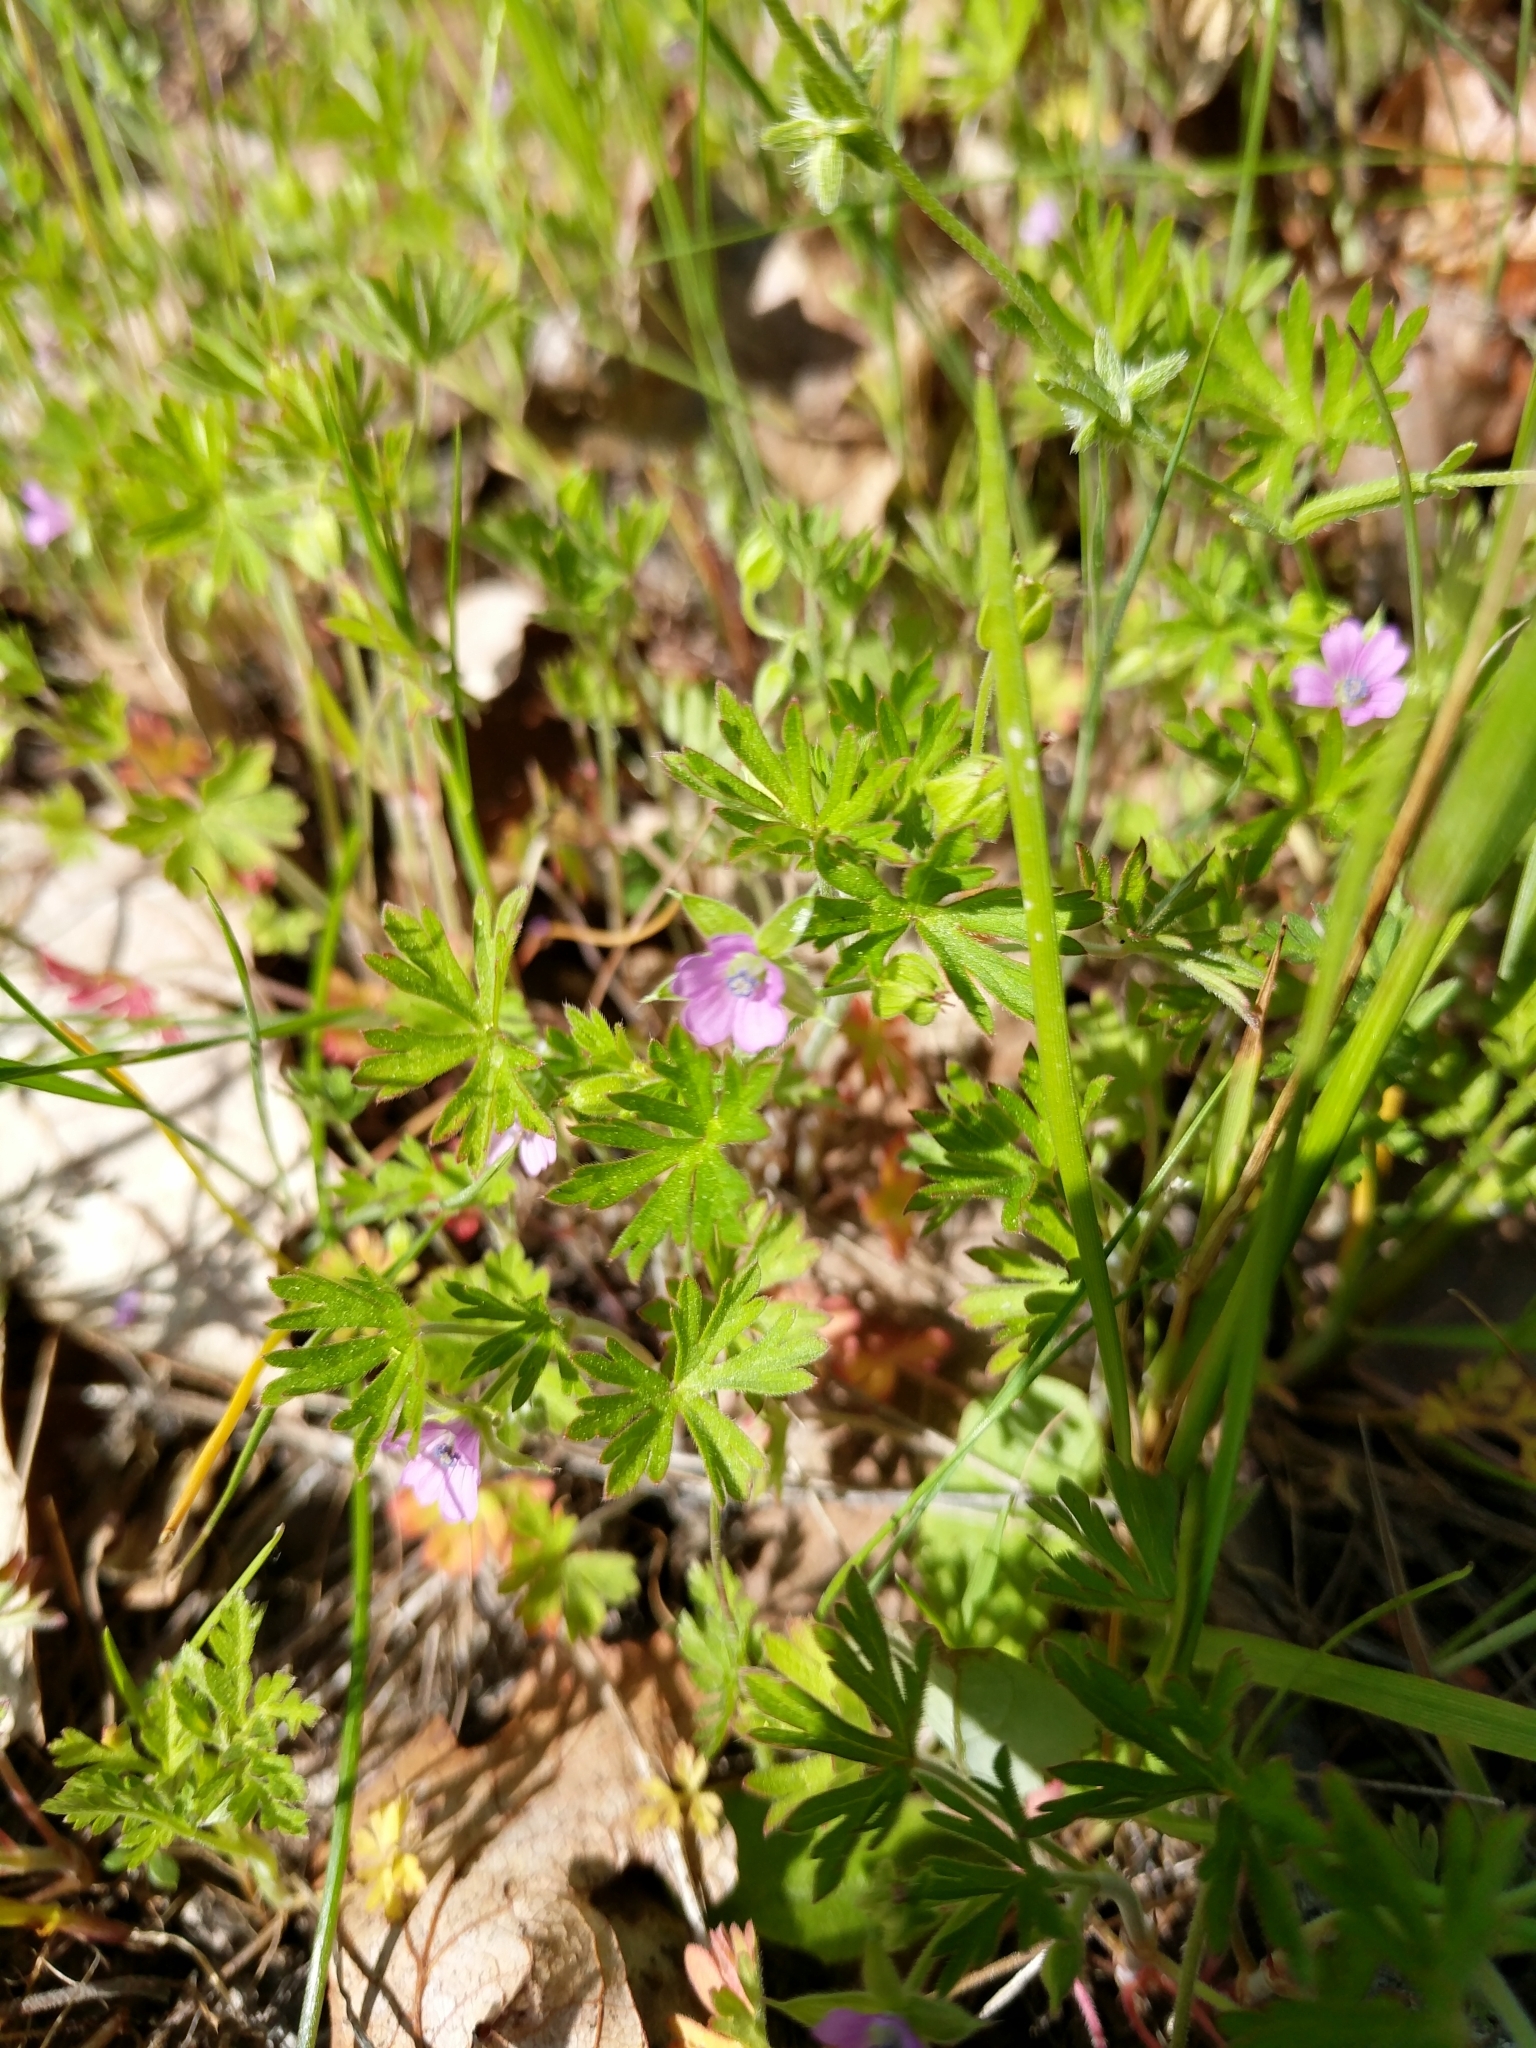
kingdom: Plantae
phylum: Tracheophyta
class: Magnoliopsida
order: Geraniales
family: Geraniaceae
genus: Geranium
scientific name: Geranium dissectum
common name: Cut-leaved crane's-bill
